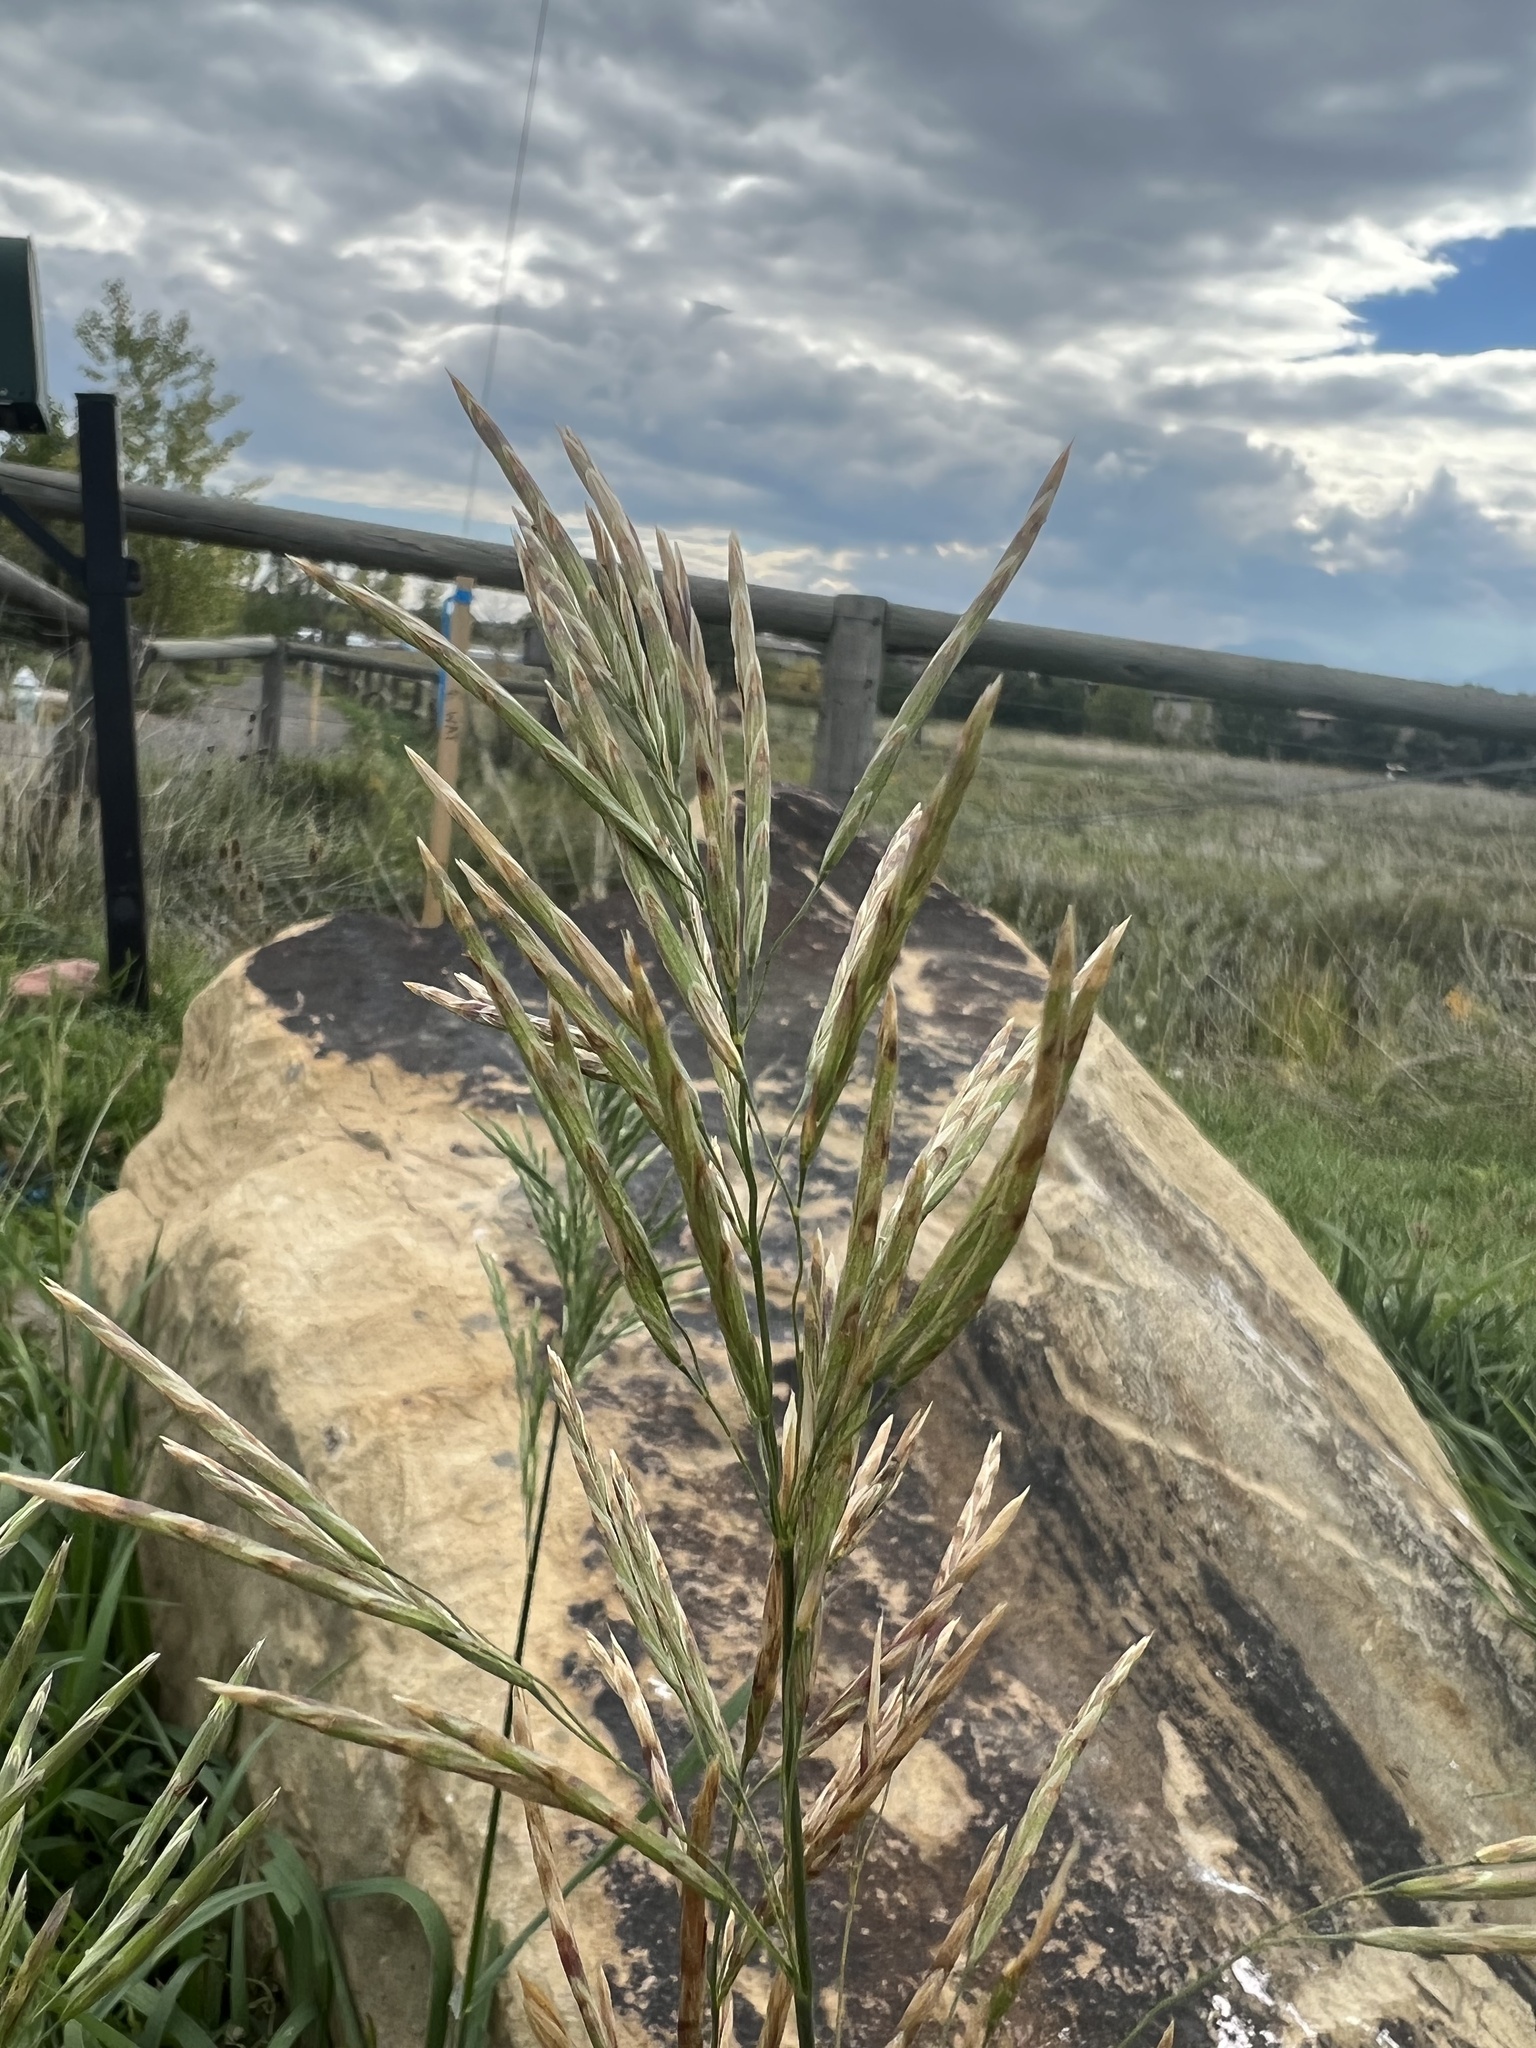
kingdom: Plantae
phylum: Tracheophyta
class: Liliopsida
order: Poales
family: Poaceae
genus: Bromus
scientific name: Bromus inermis
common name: Smooth brome
